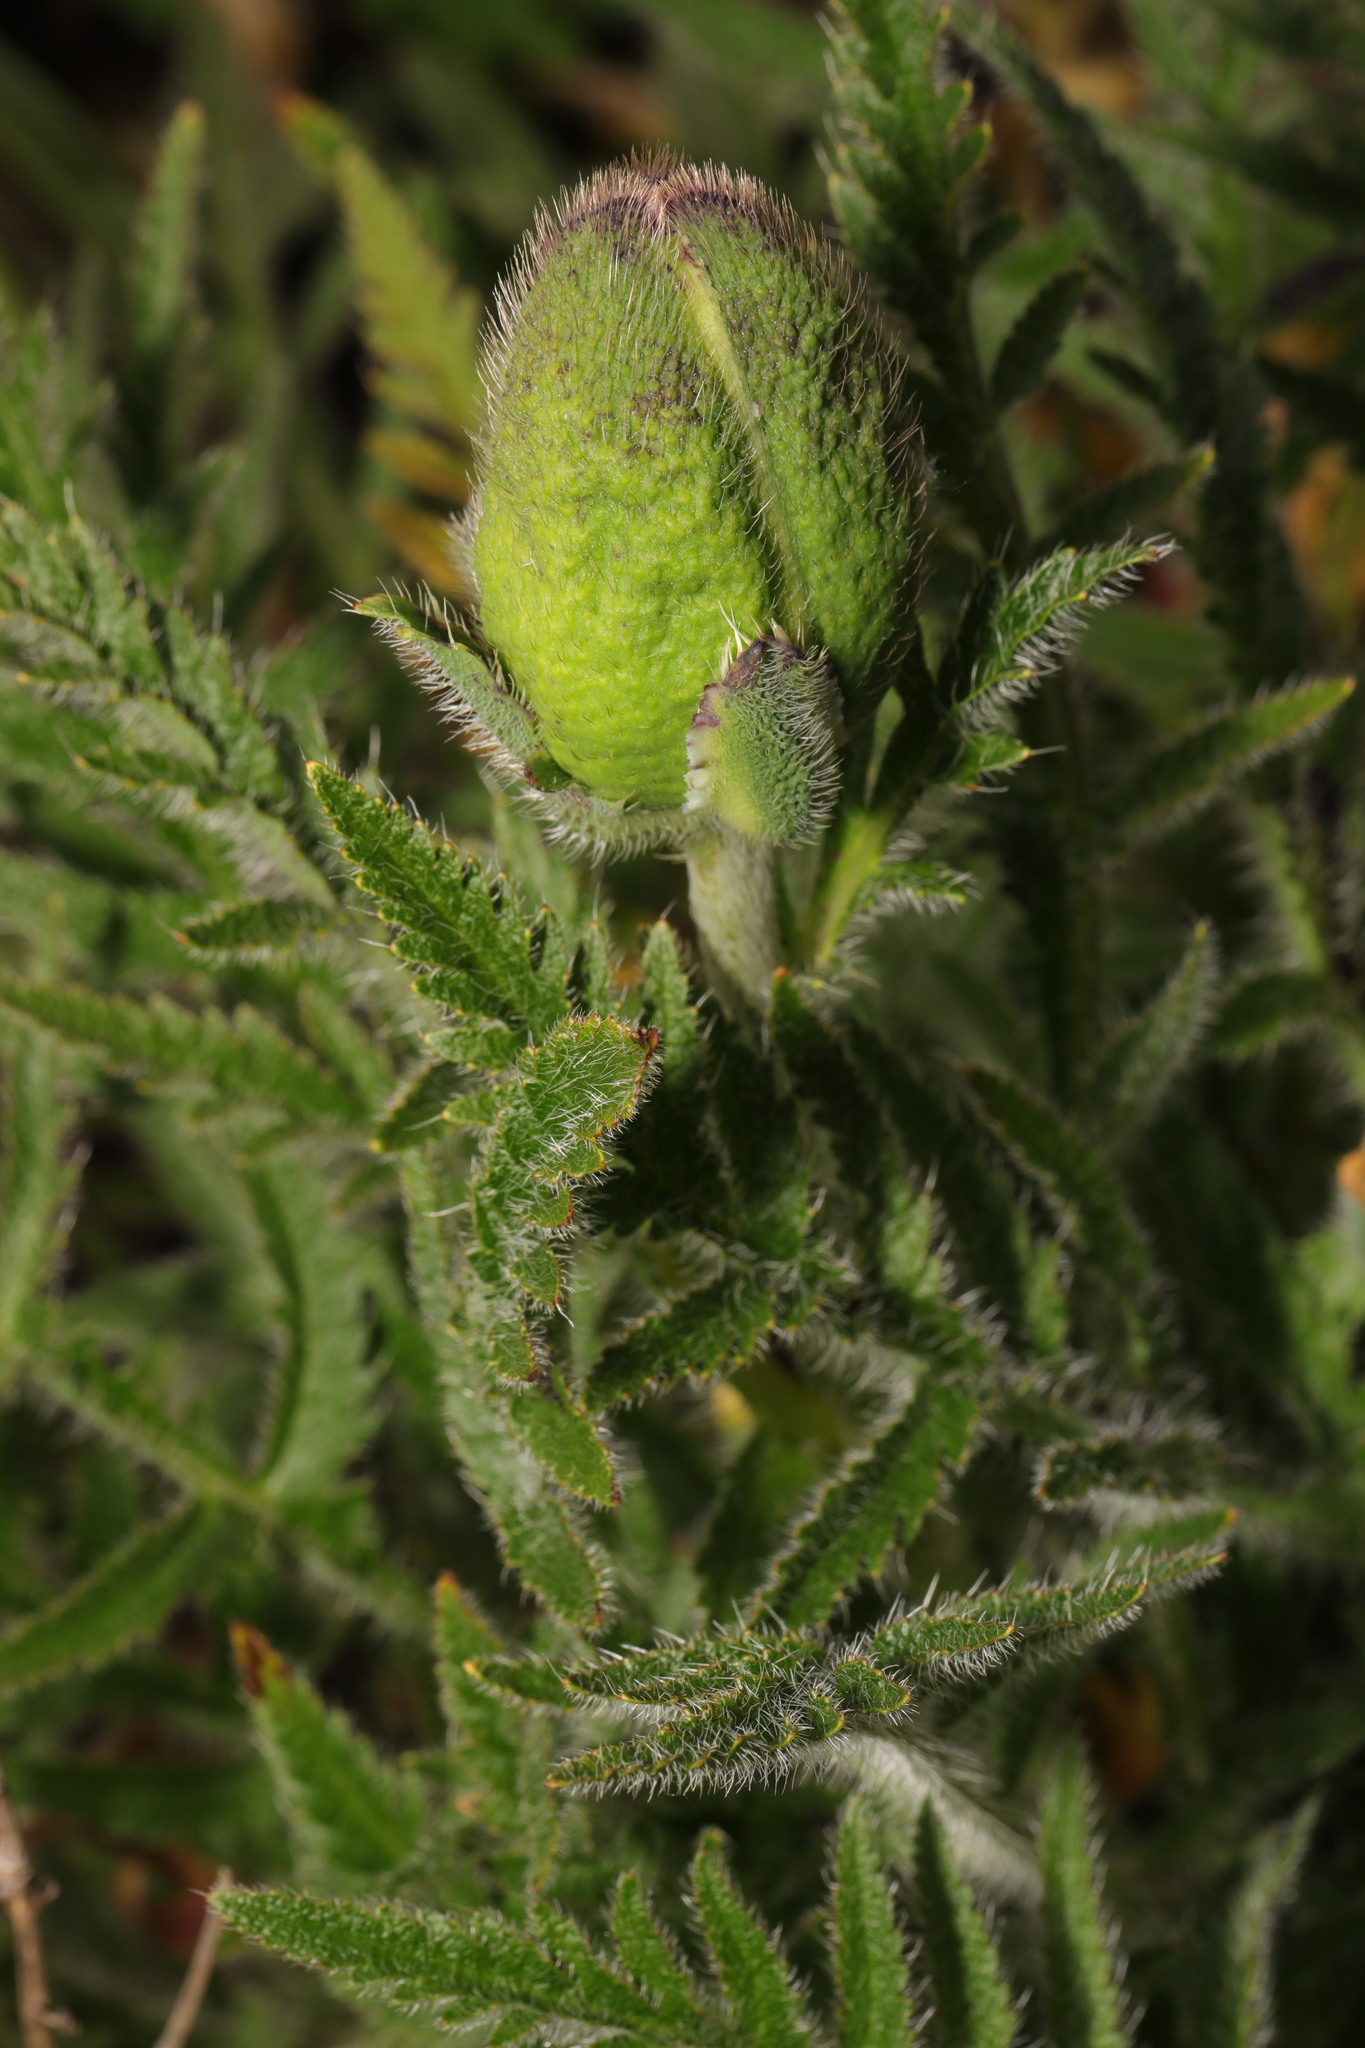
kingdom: Plantae
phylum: Tracheophyta
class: Magnoliopsida
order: Ranunculales
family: Papaveraceae
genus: Papaver
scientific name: Papaver orientale
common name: Oriental poppy
